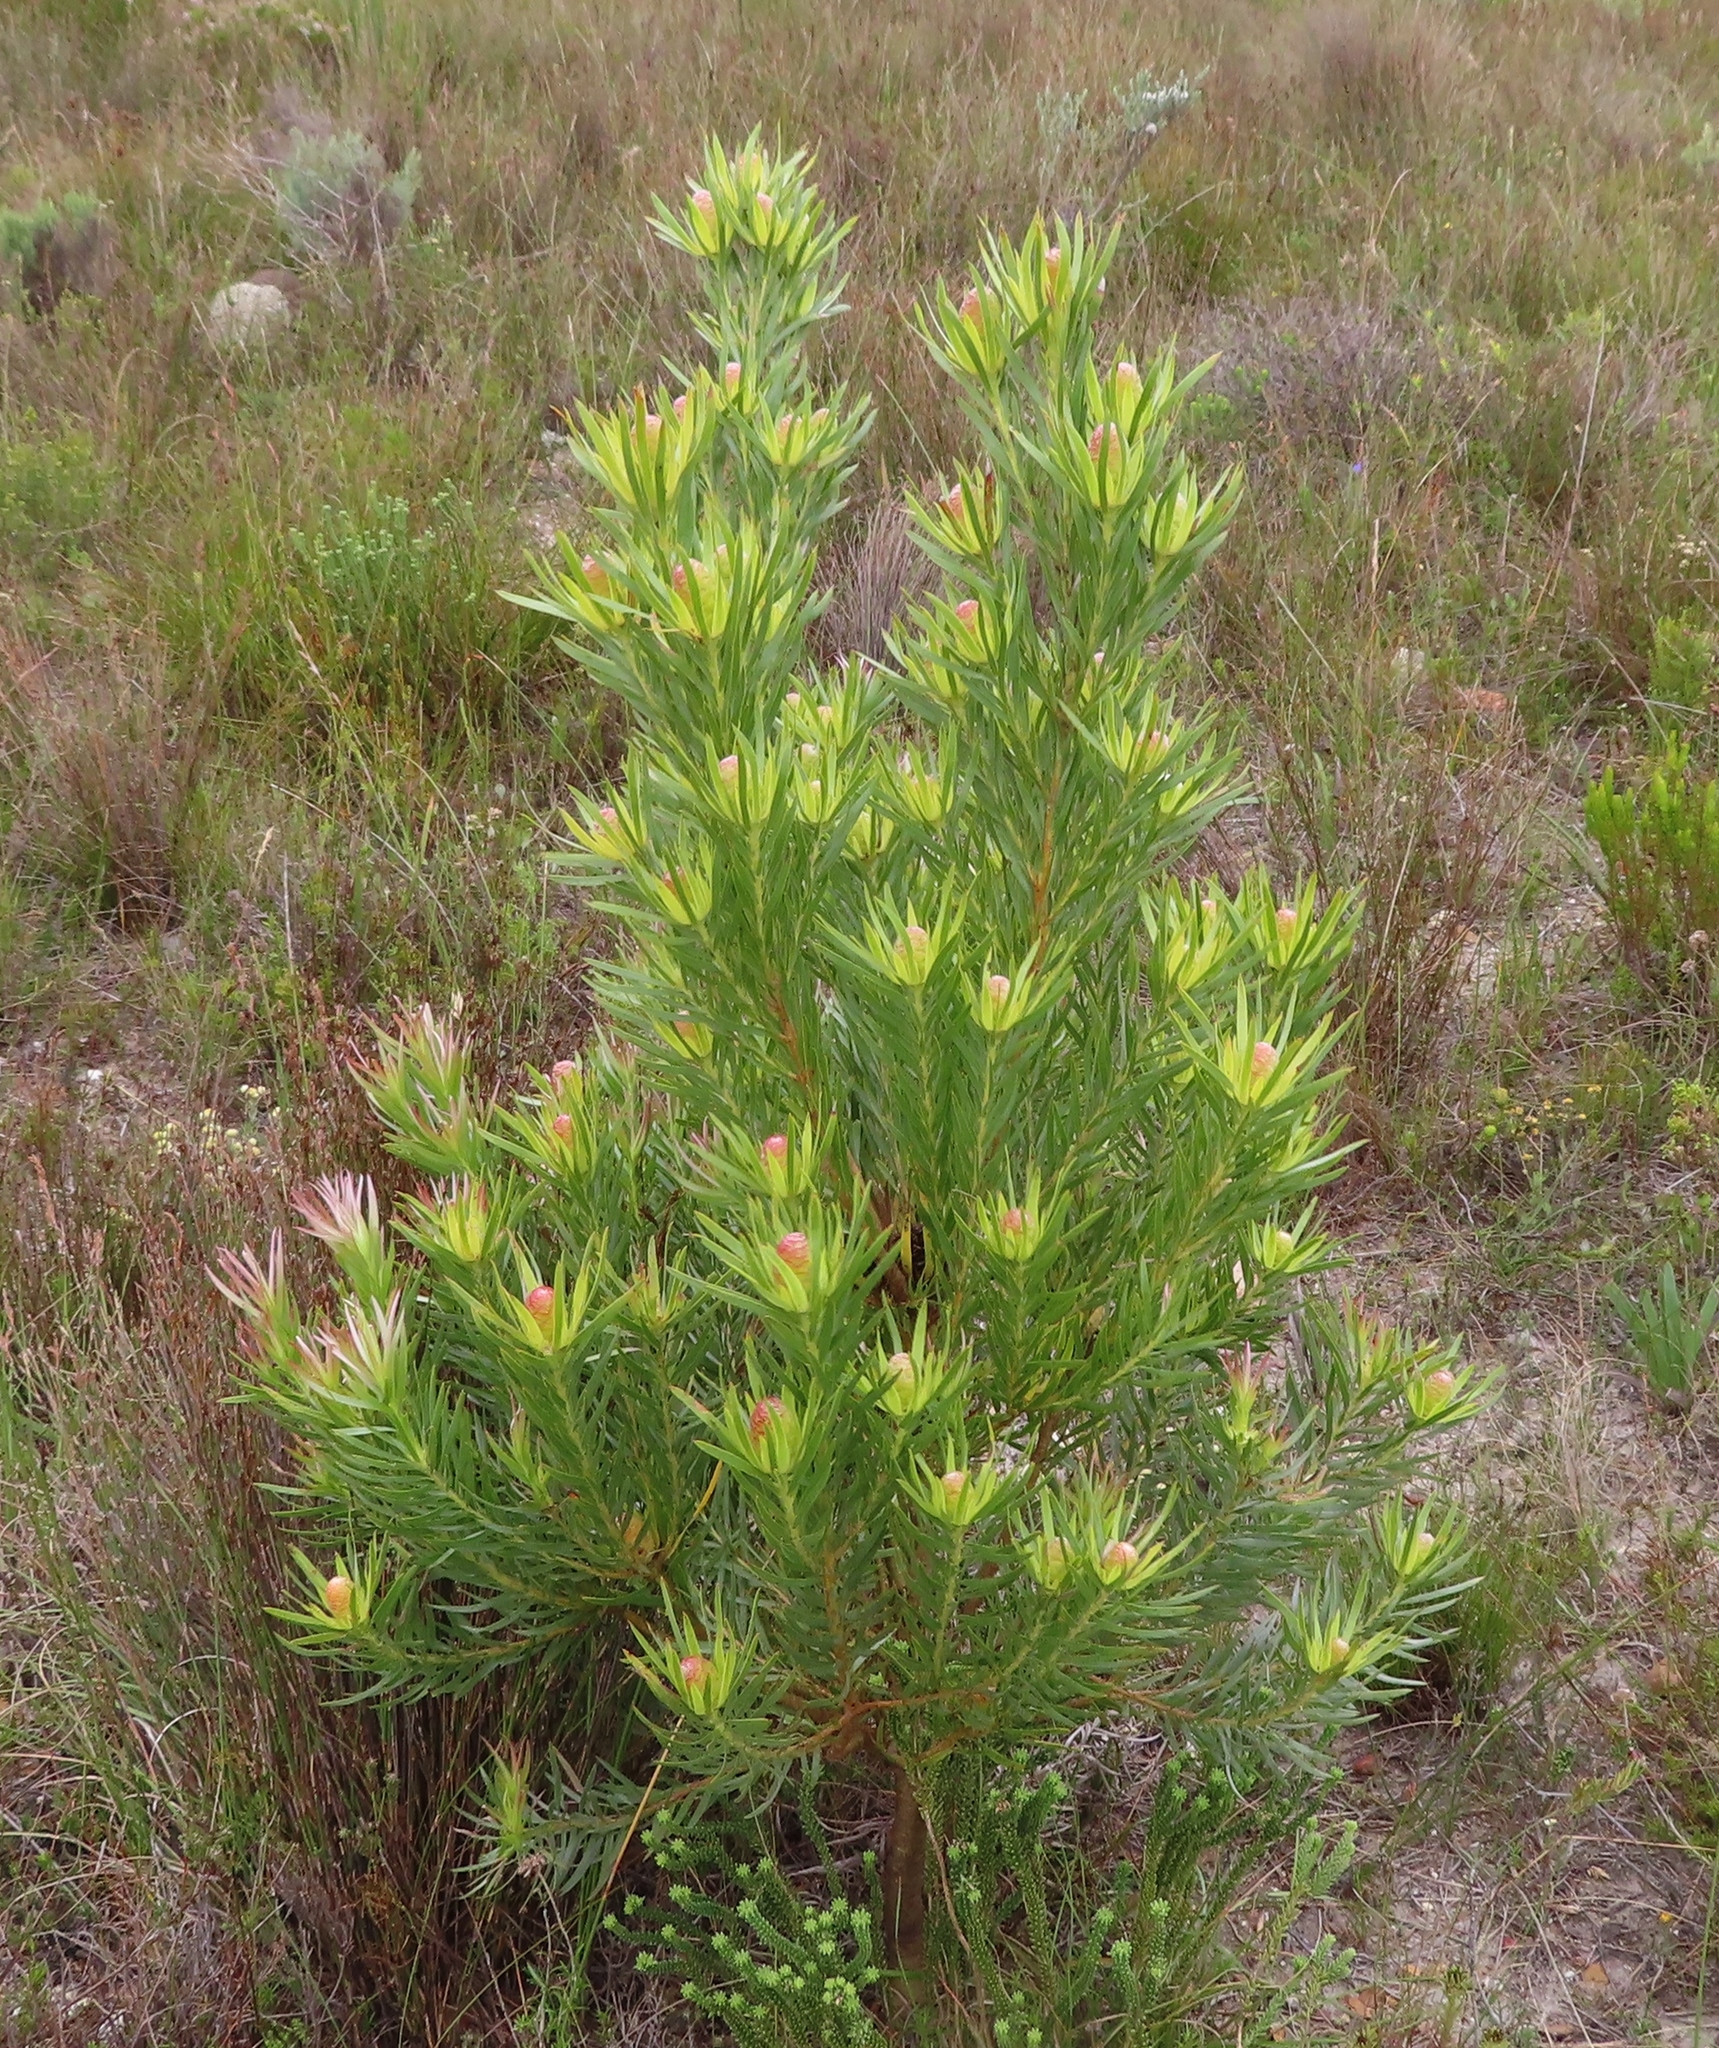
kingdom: Plantae
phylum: Tracheophyta
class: Magnoliopsida
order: Proteales
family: Proteaceae
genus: Leucadendron
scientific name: Leucadendron xanthoconus
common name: Sickle-leaf conebush
